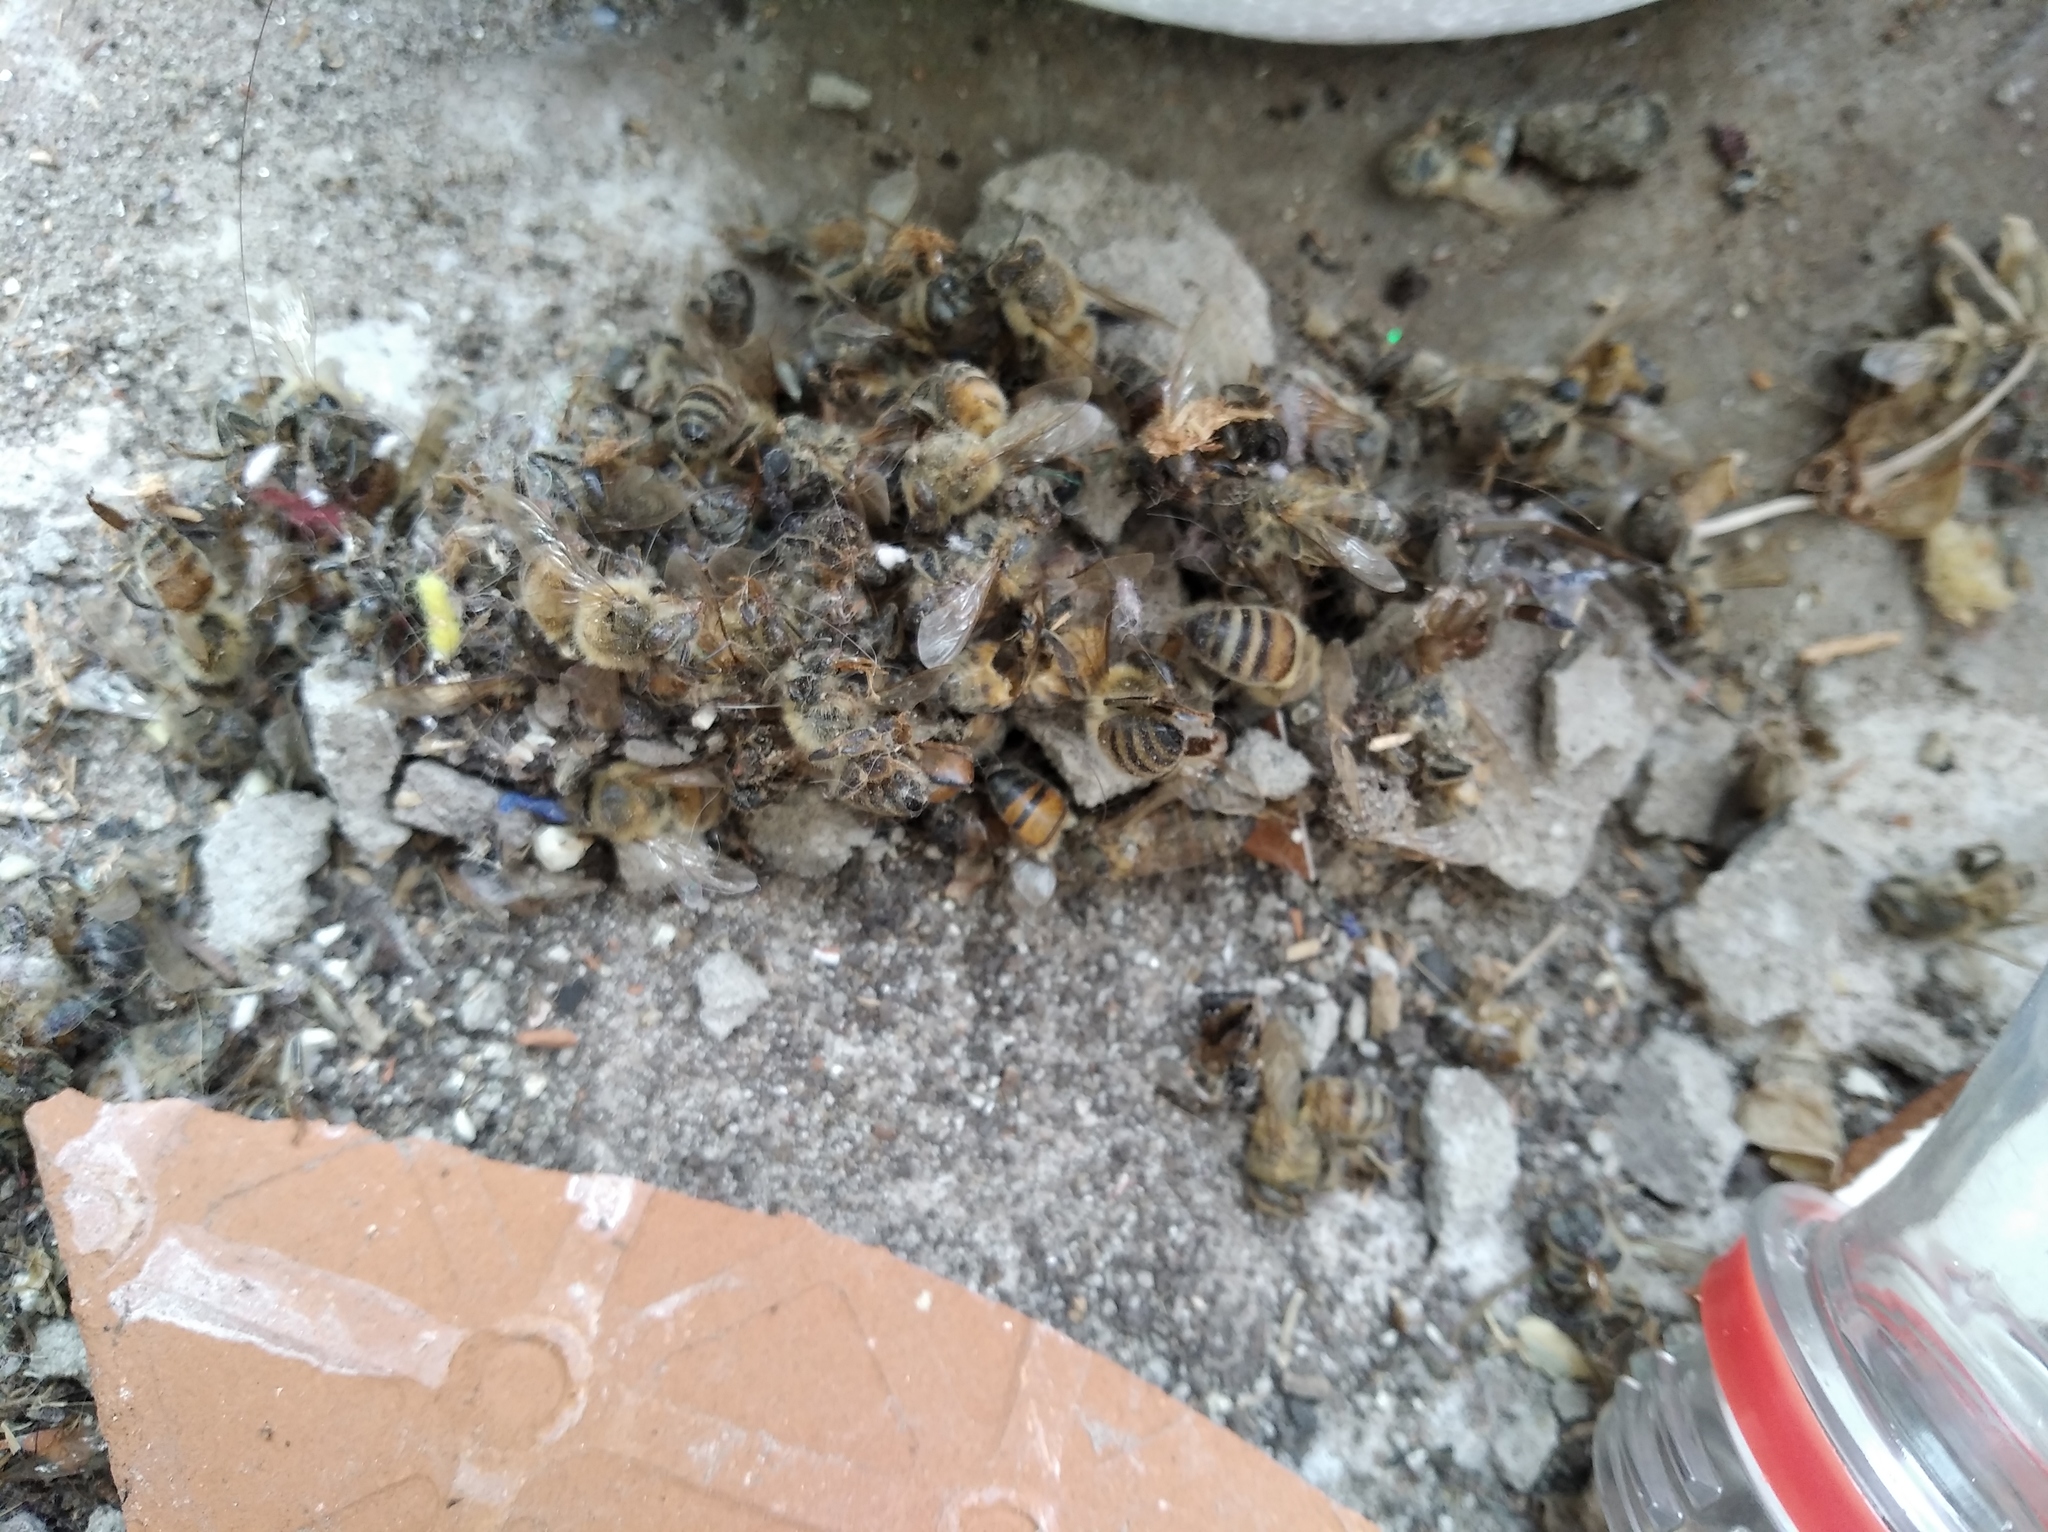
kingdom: Animalia
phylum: Arthropoda
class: Insecta
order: Hymenoptera
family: Apidae
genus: Apis
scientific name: Apis mellifera
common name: Honey bee
